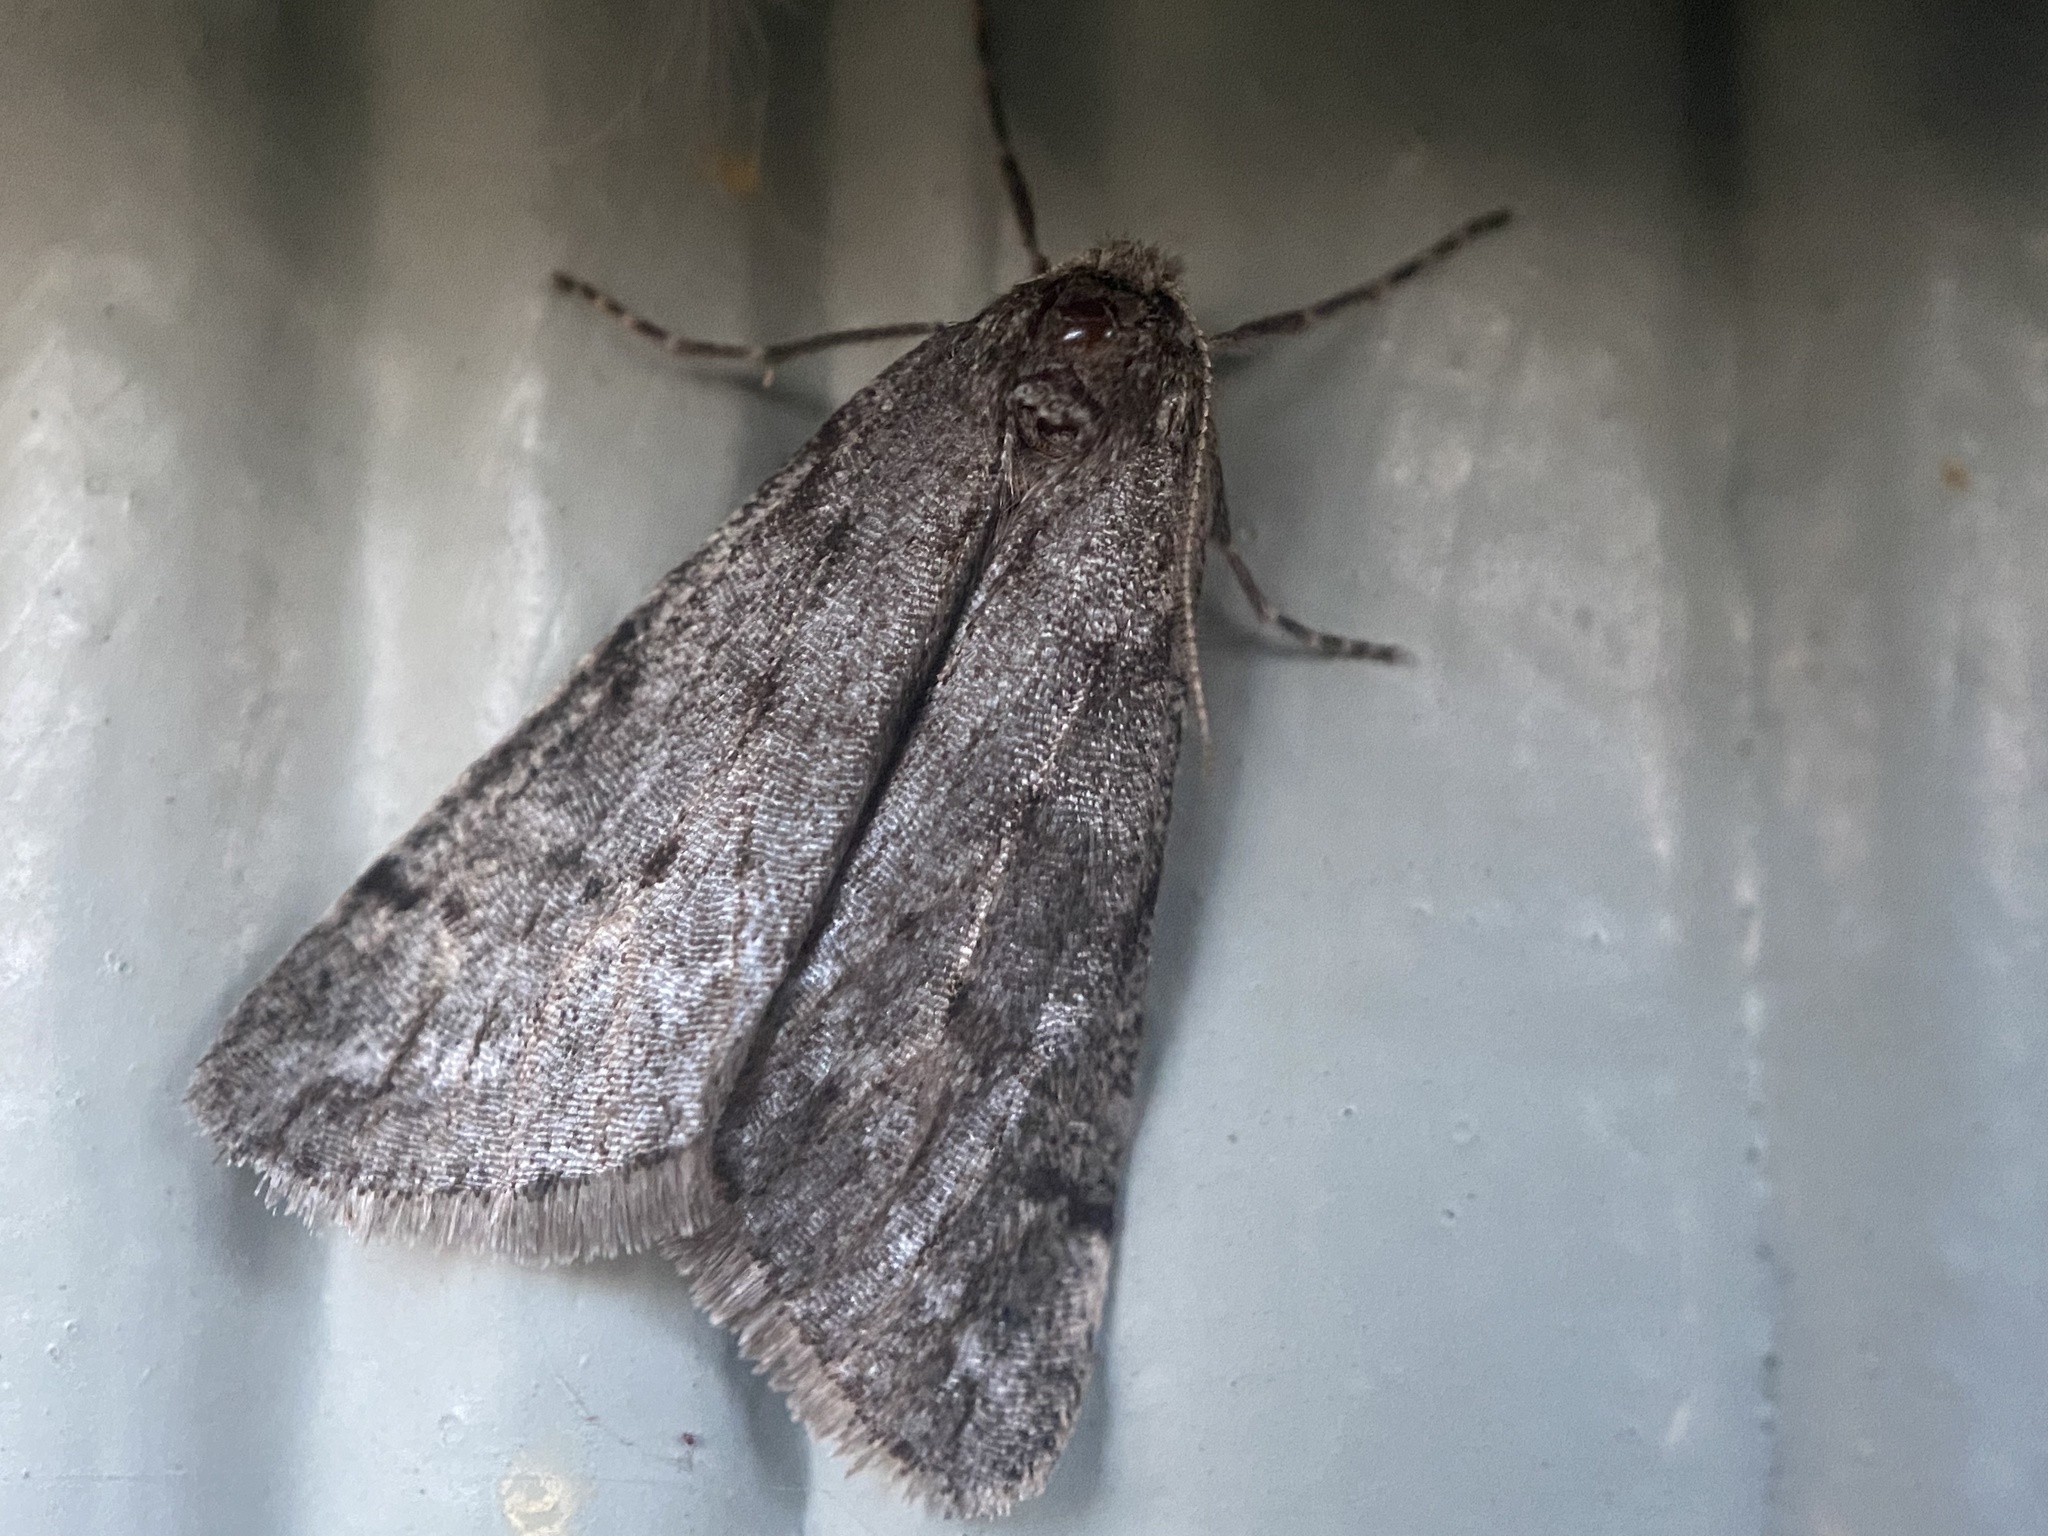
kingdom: Animalia
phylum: Arthropoda
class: Insecta
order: Lepidoptera
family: Geometridae
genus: Paleacrita
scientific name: Paleacrita vernata
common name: Spring cankerworm
